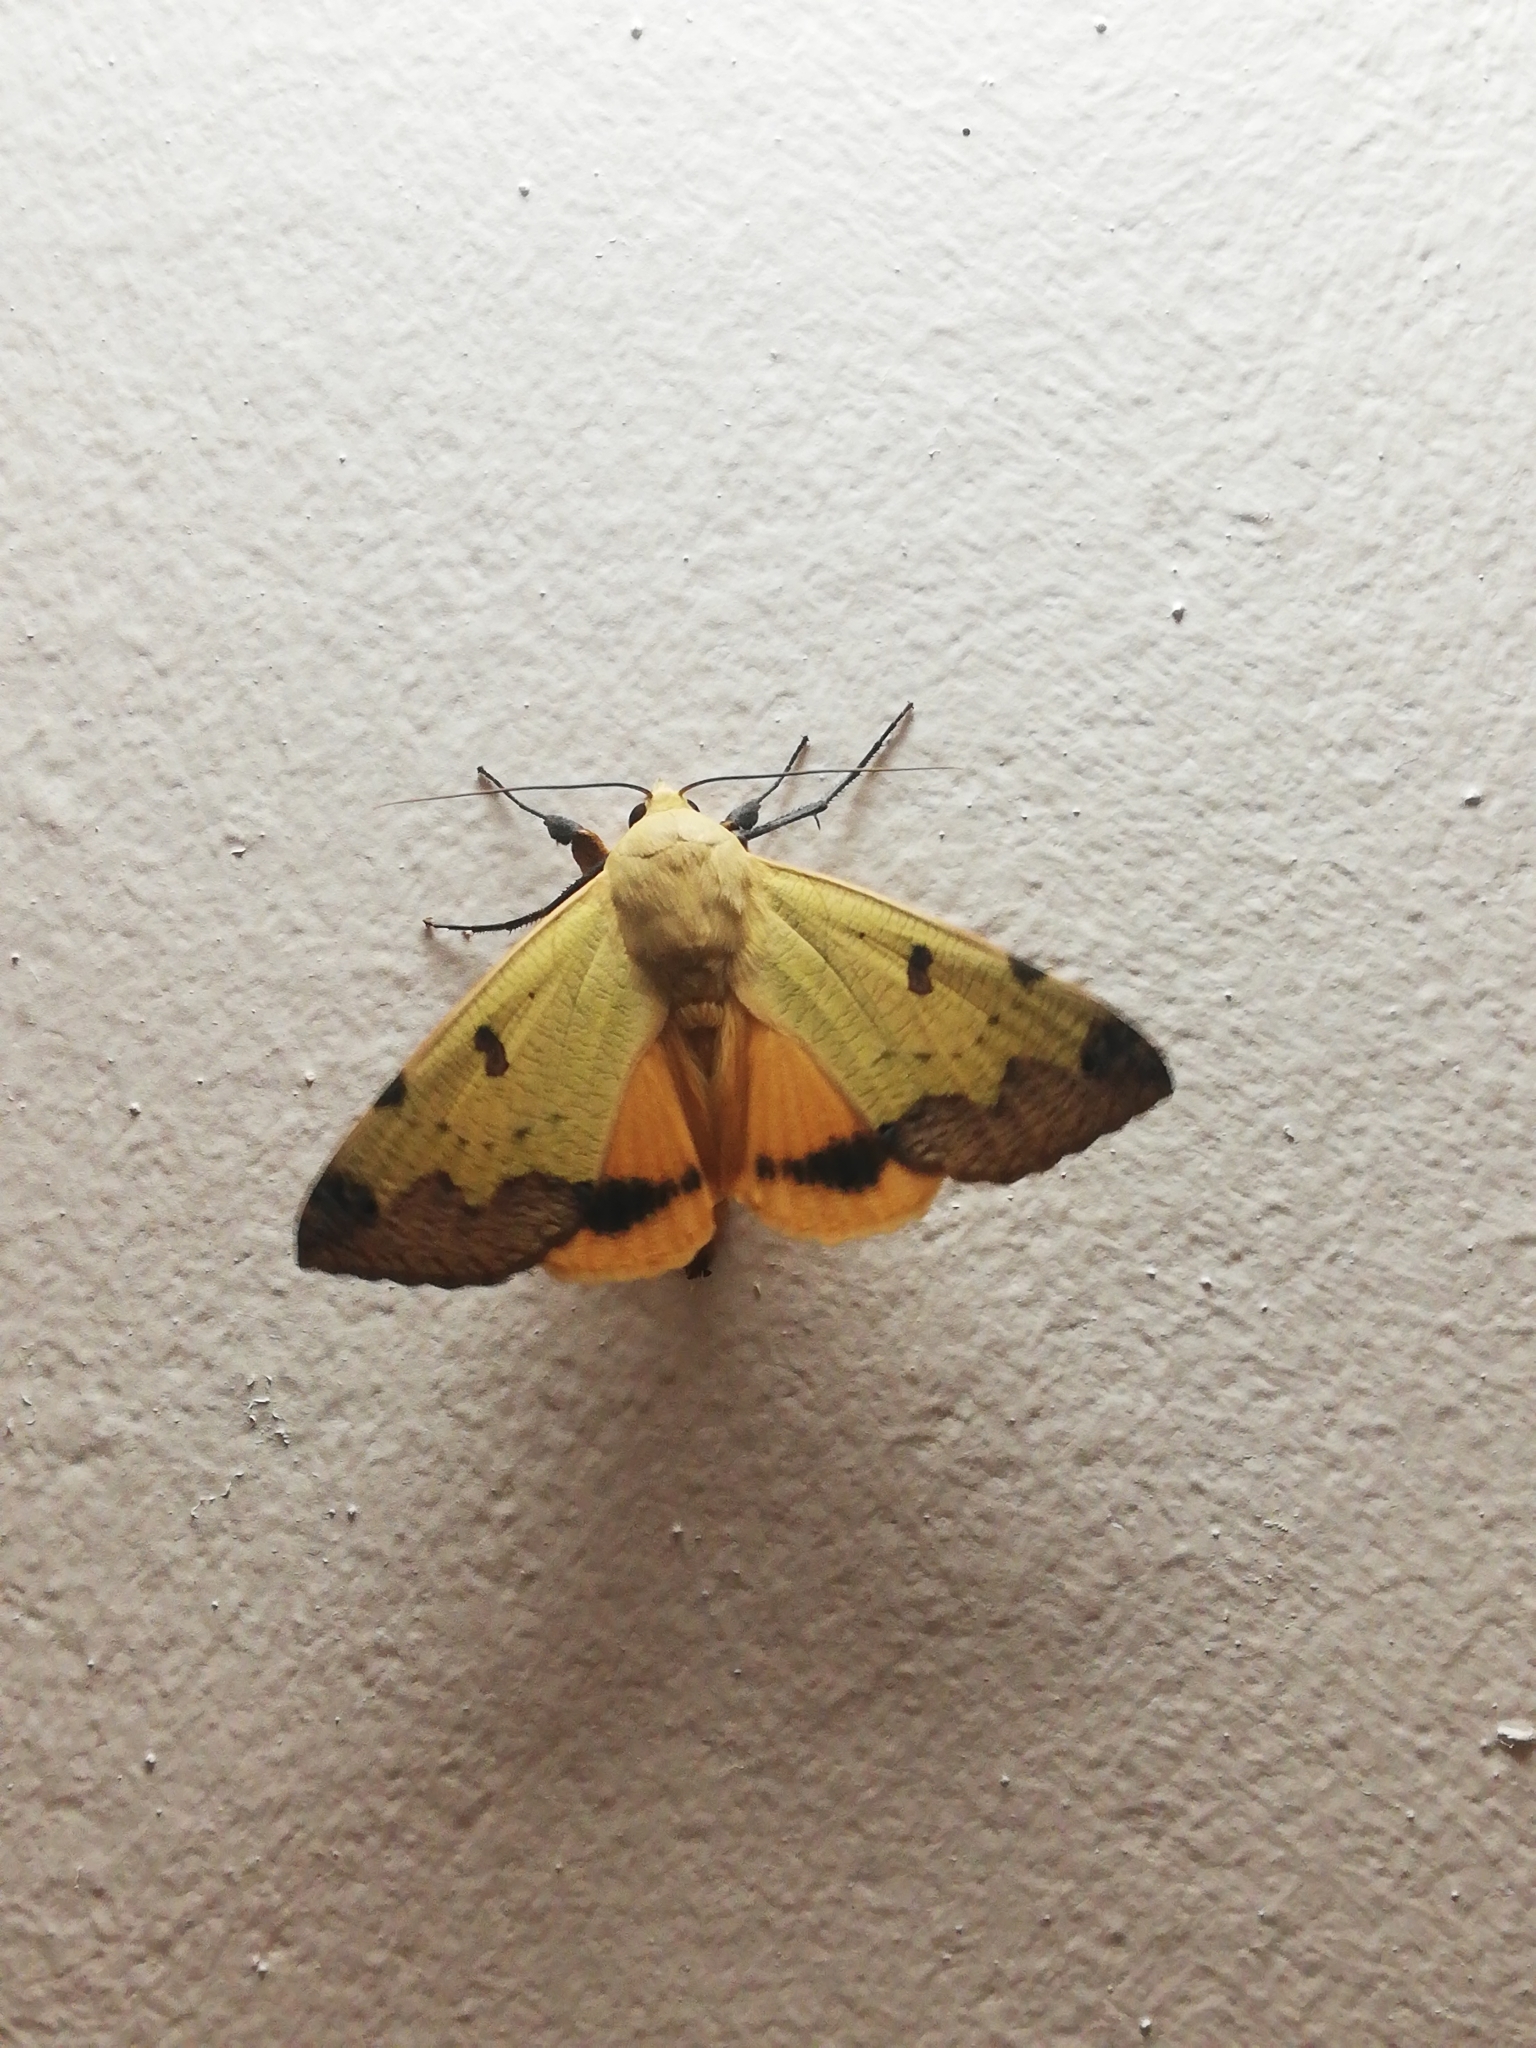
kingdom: Animalia
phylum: Arthropoda
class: Insecta
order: Lepidoptera
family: Erebidae
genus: Ophiusa
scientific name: Ophiusa tirhaca
